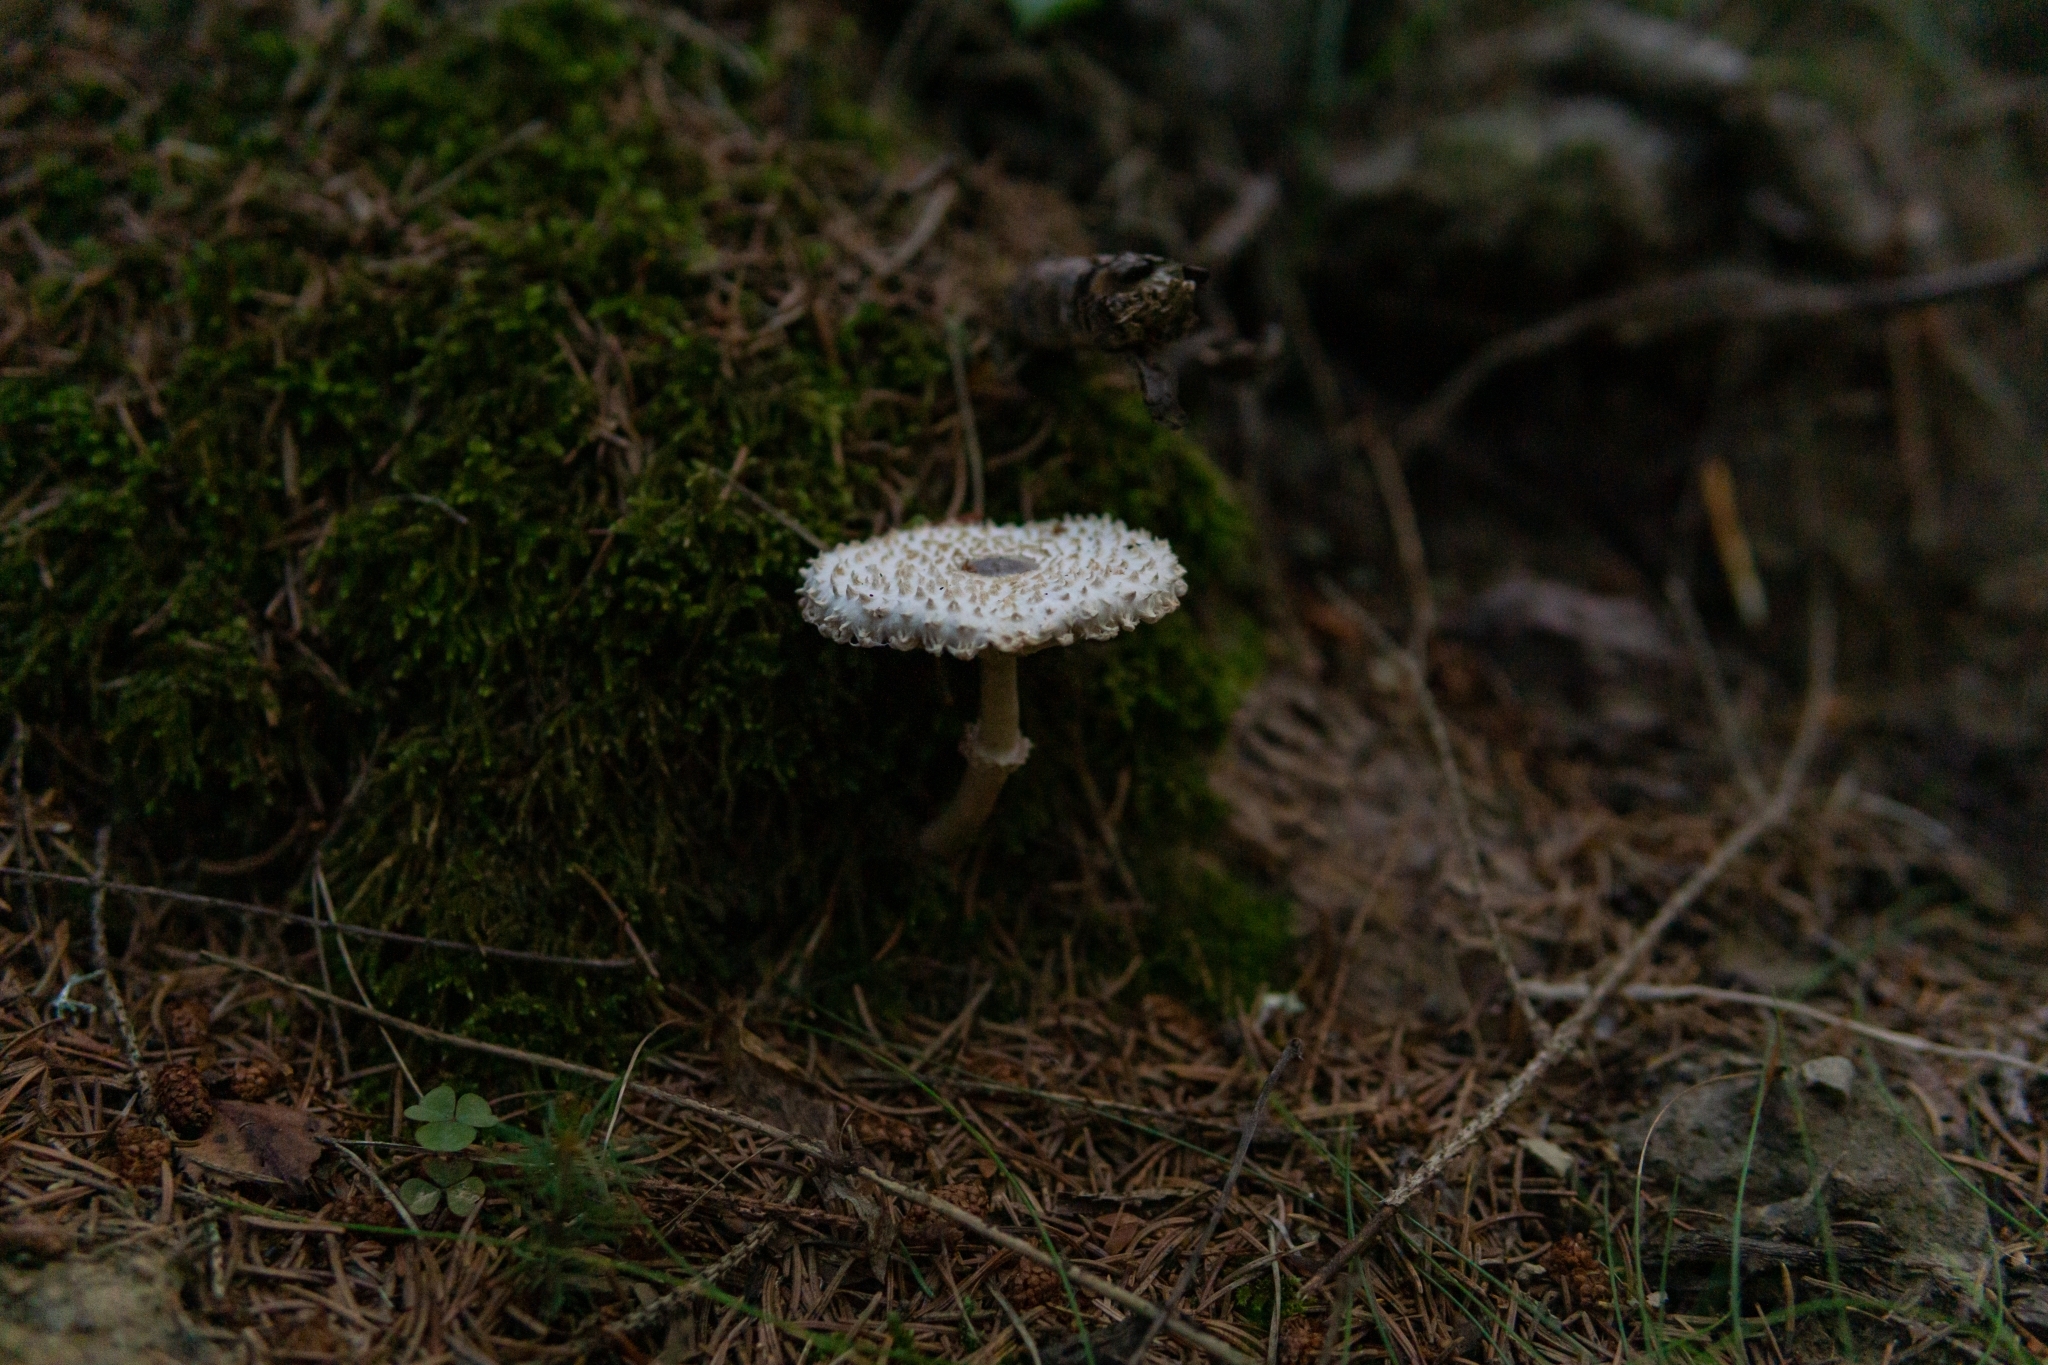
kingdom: Fungi
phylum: Basidiomycota
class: Agaricomycetes
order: Agaricales
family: Agaricaceae
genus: Lepiota
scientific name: Lepiota felina
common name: Cat dapperling
